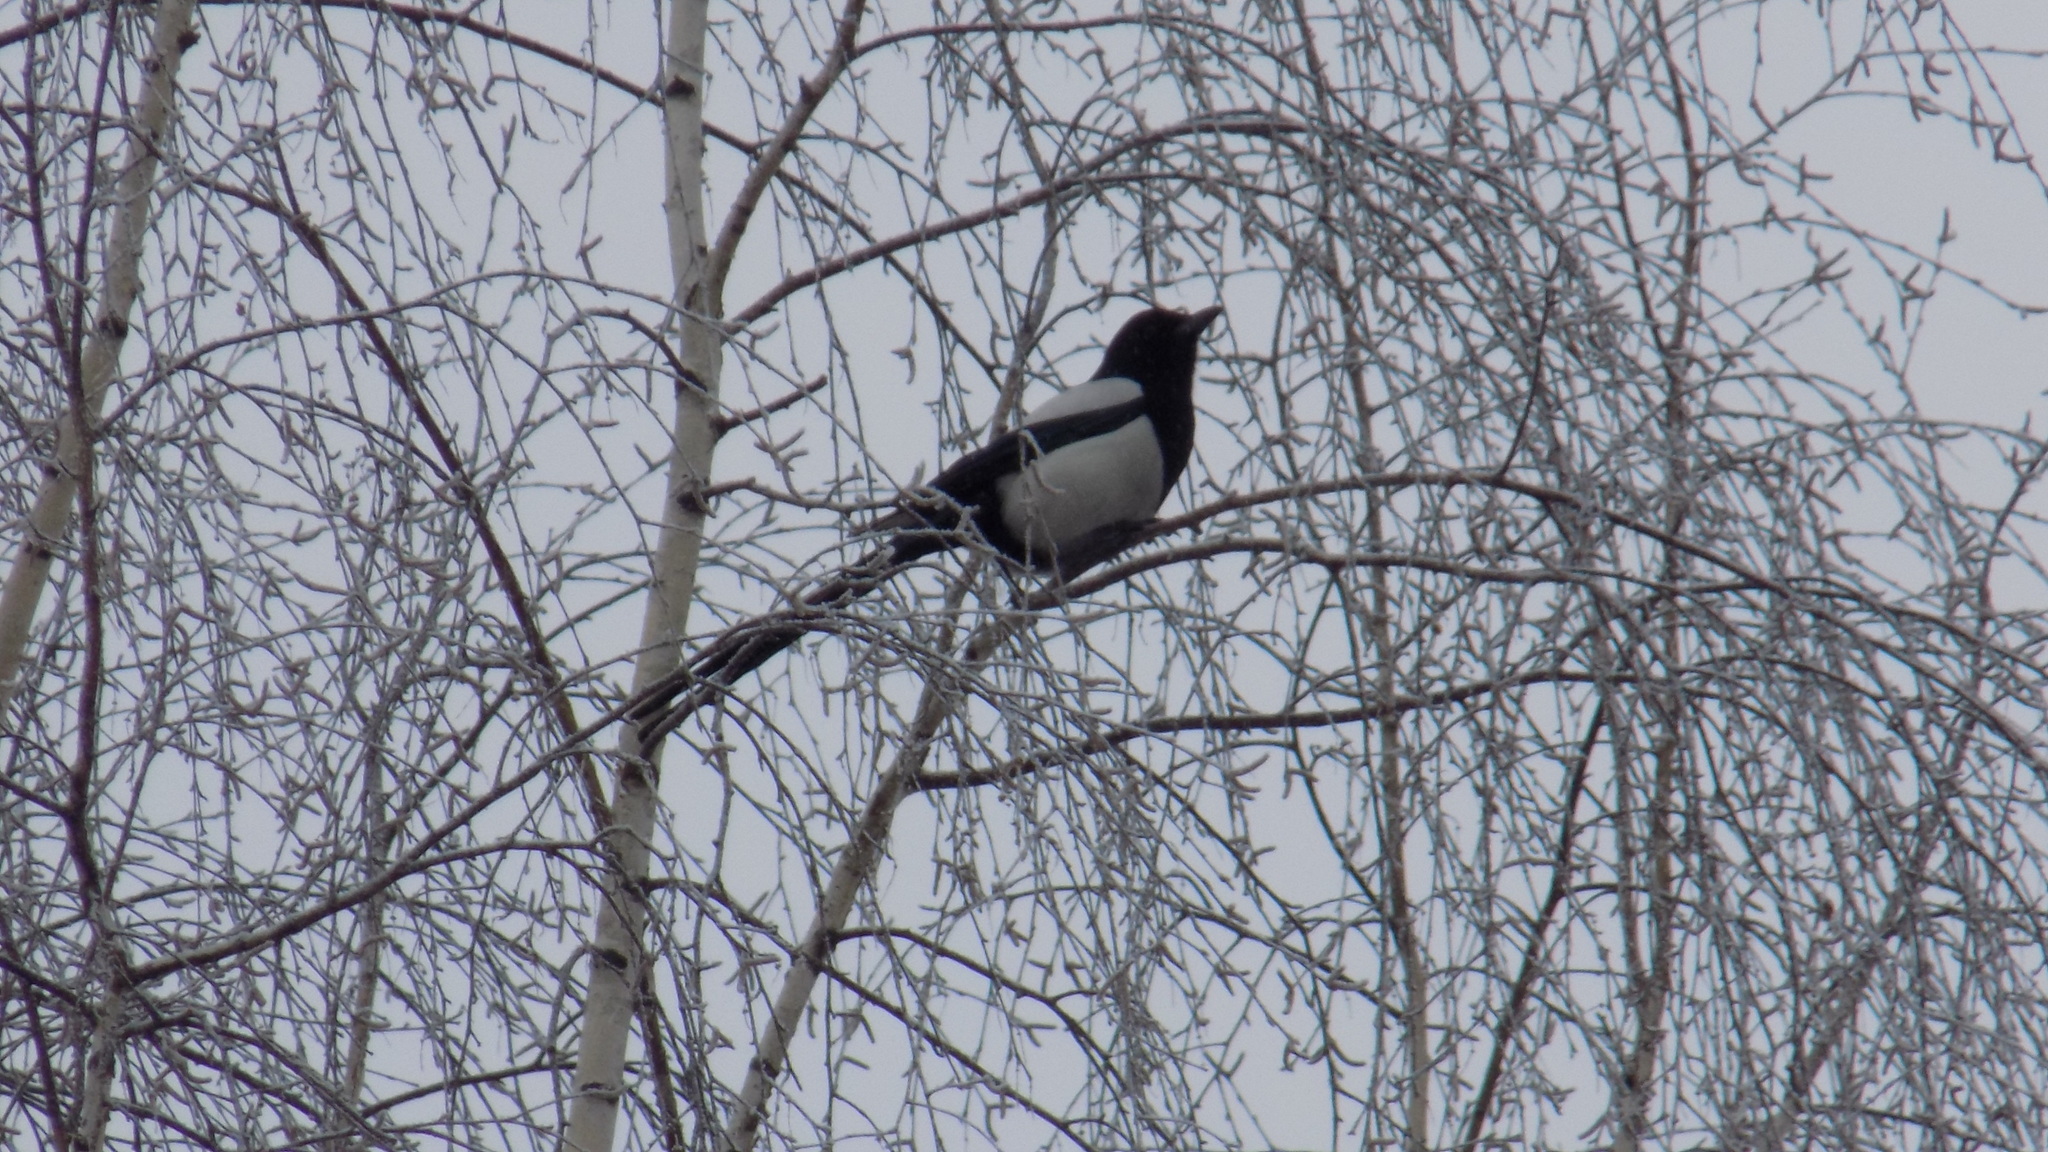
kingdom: Animalia
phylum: Chordata
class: Aves
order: Passeriformes
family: Corvidae
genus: Pica
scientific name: Pica pica
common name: Eurasian magpie
